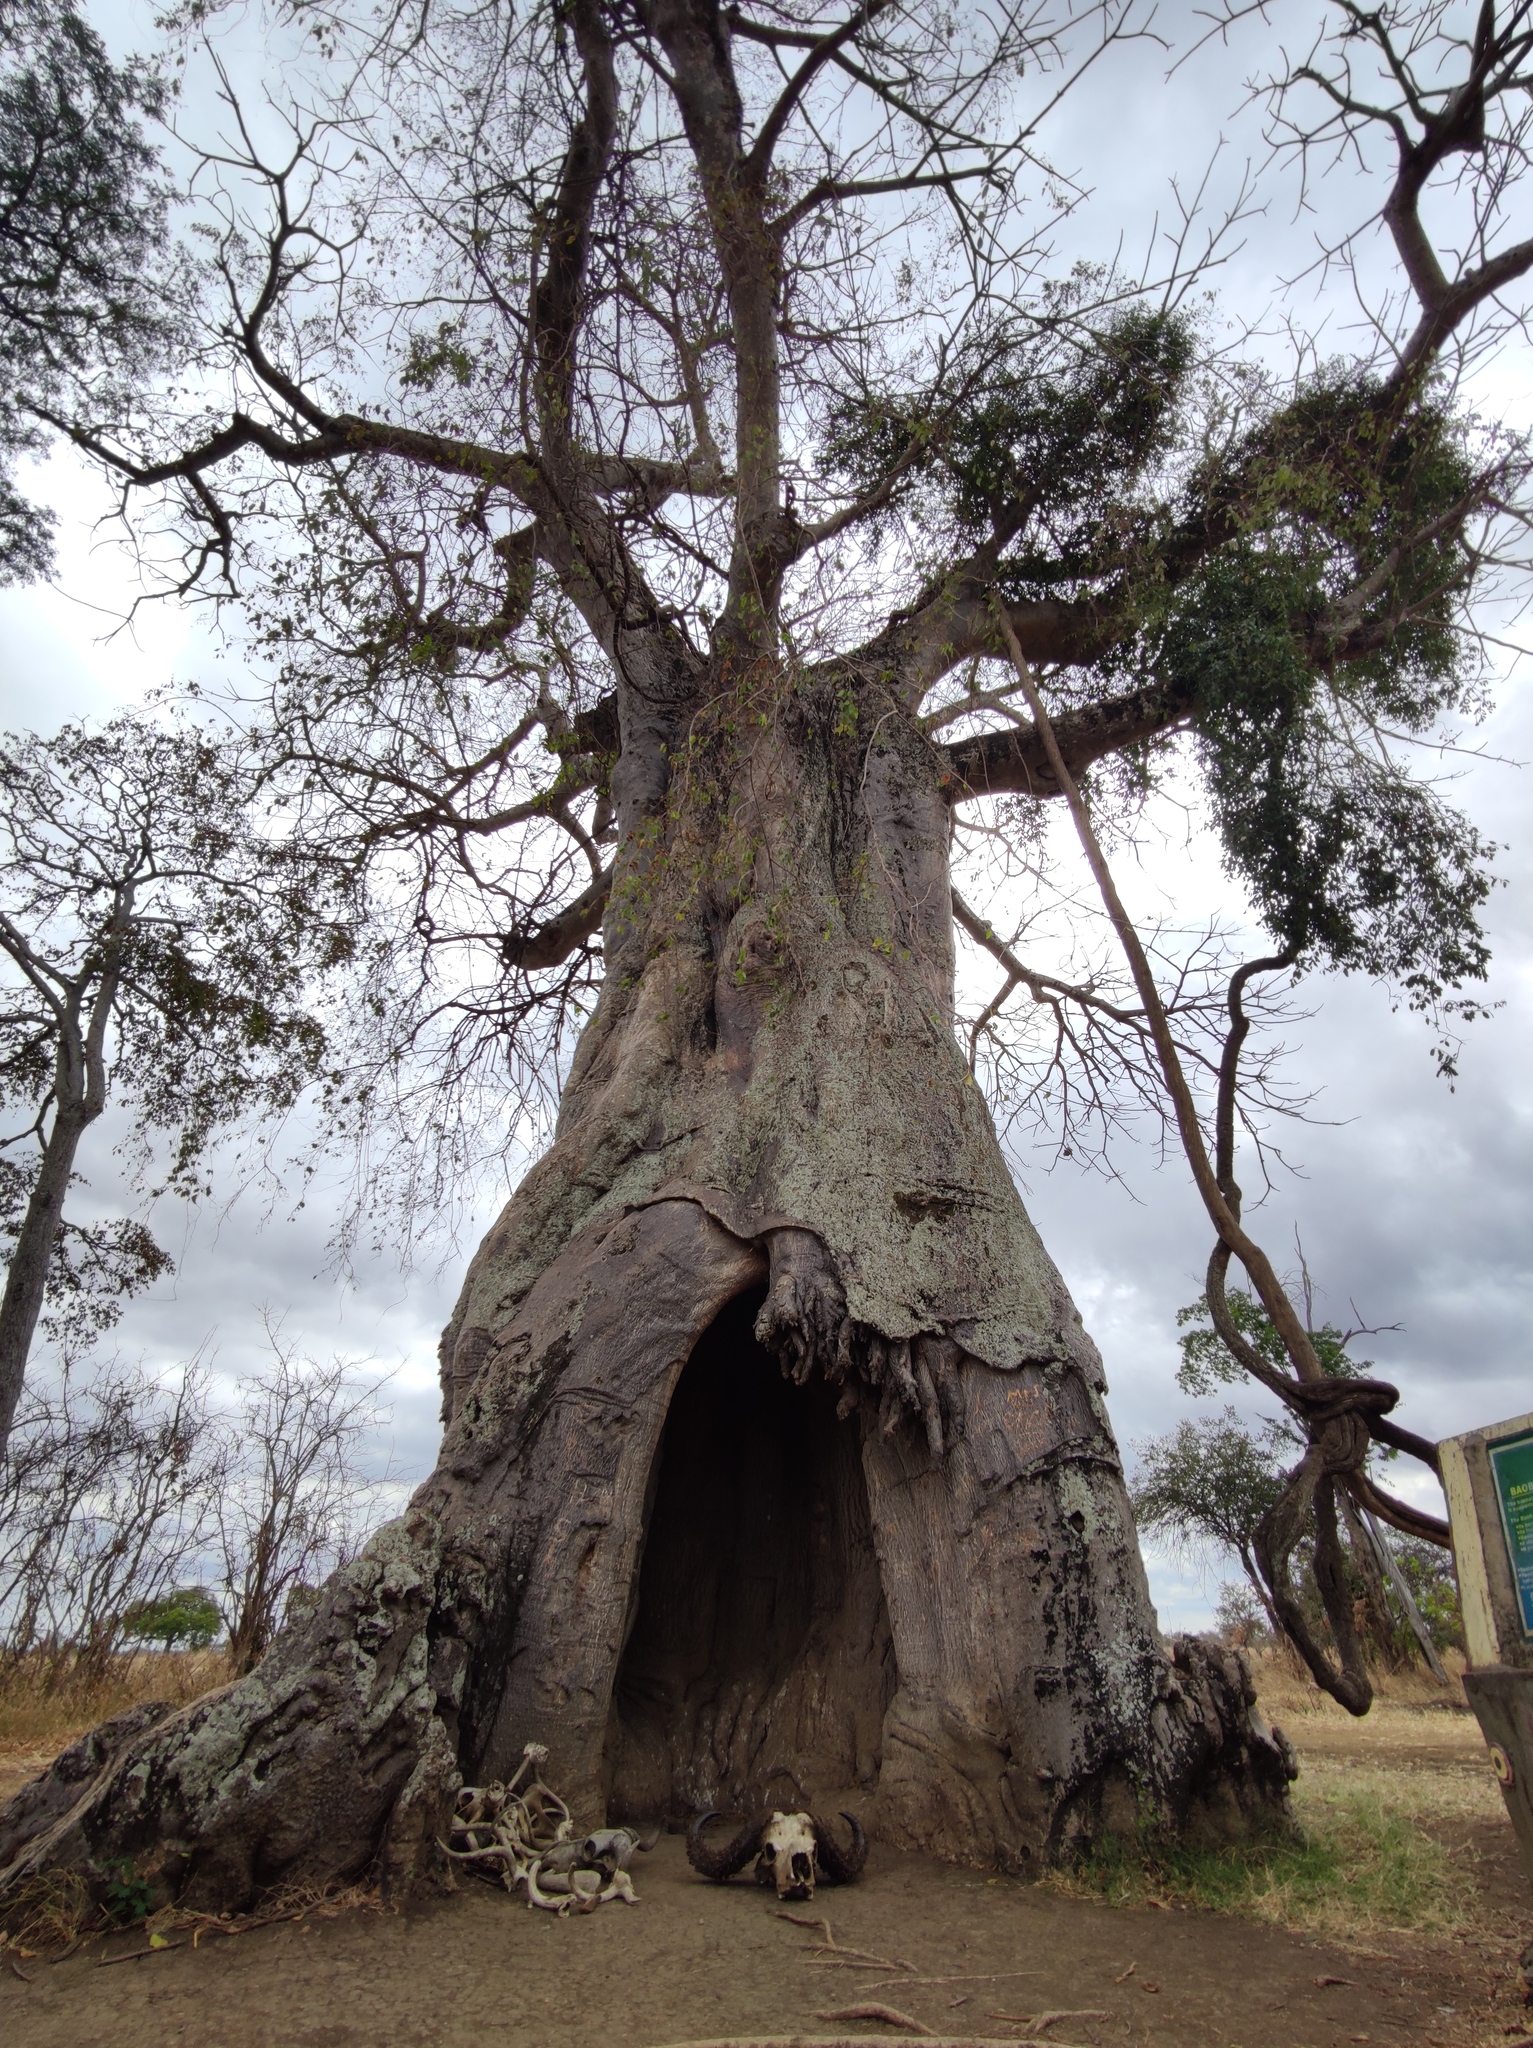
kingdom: Plantae
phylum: Tracheophyta
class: Magnoliopsida
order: Malvales
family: Malvaceae
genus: Adansonia
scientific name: Adansonia digitata
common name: Dead-rat-tree
